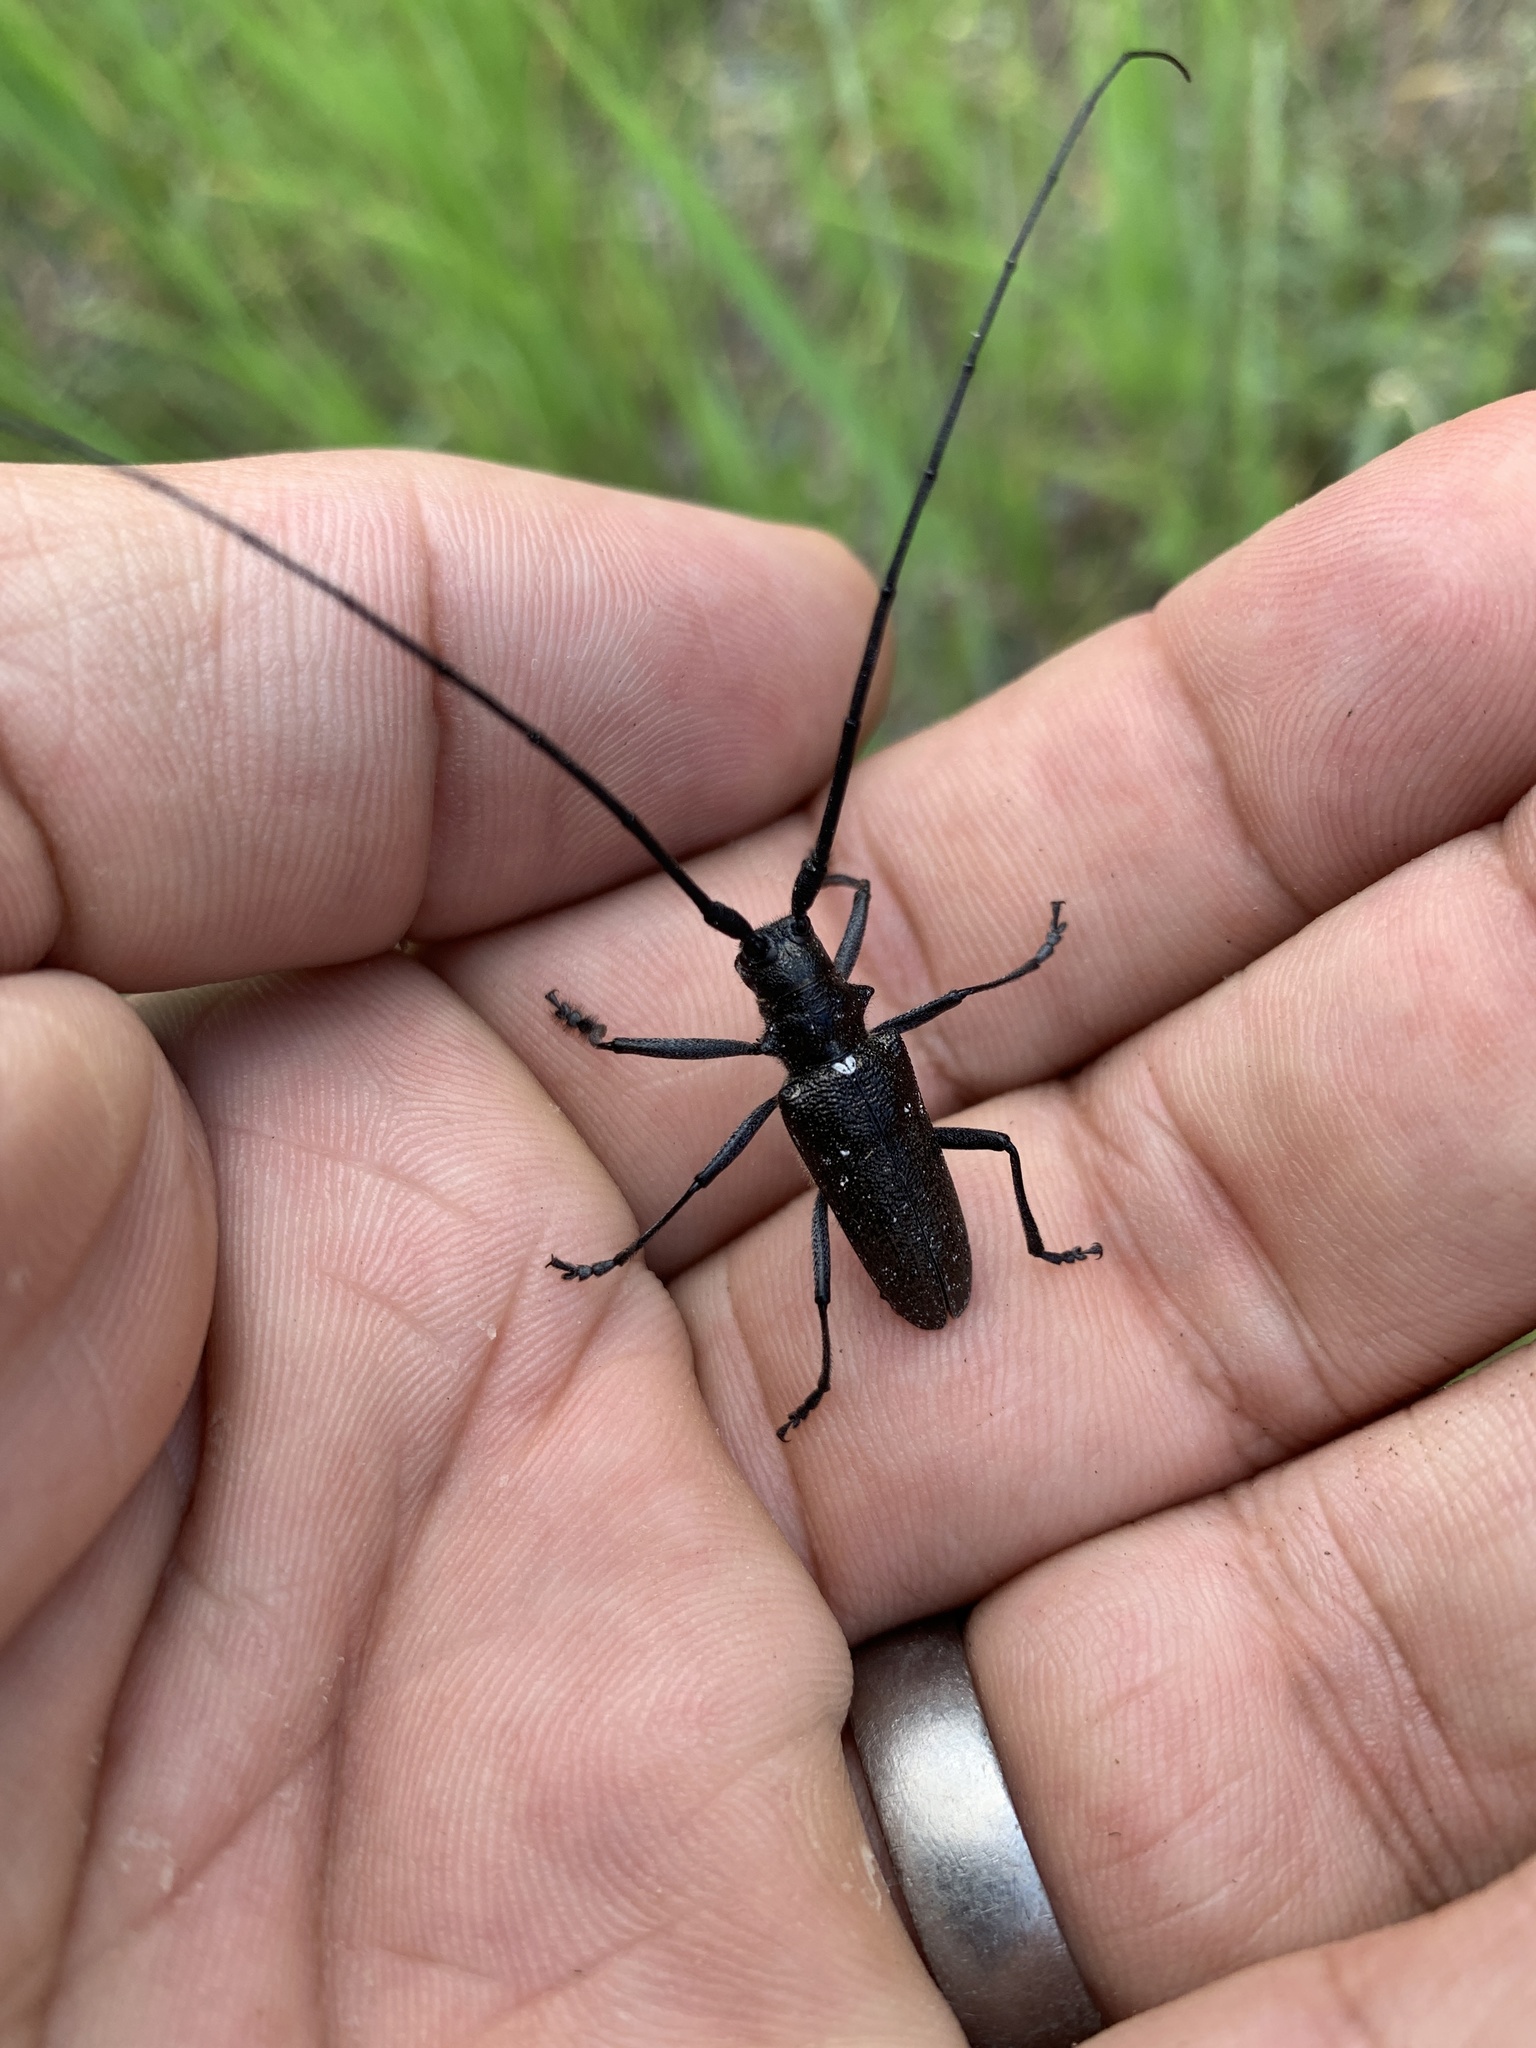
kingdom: Animalia
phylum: Arthropoda
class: Insecta
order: Coleoptera
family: Cerambycidae
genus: Monochamus
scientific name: Monochamus scutellatus
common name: White-spotted sawyer beetle
